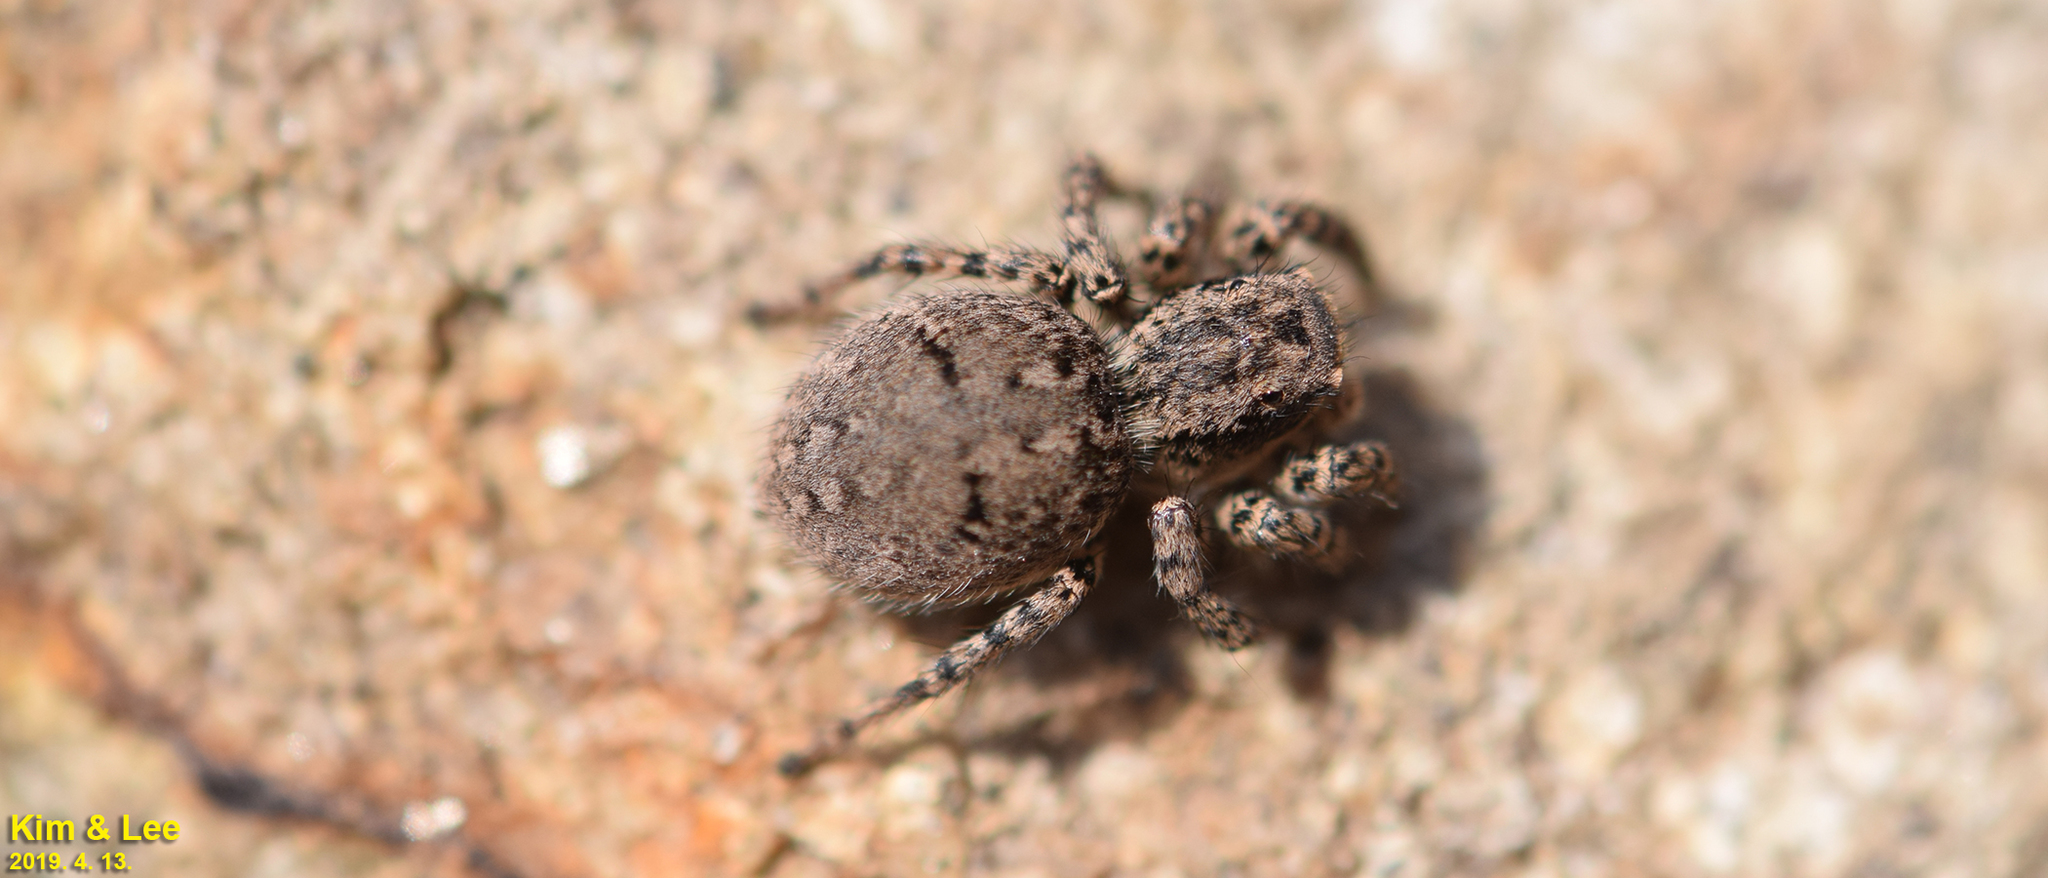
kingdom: Animalia
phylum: Arthropoda
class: Arachnida
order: Araneae
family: Salticidae
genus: Asianellus
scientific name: Asianellus festivus
